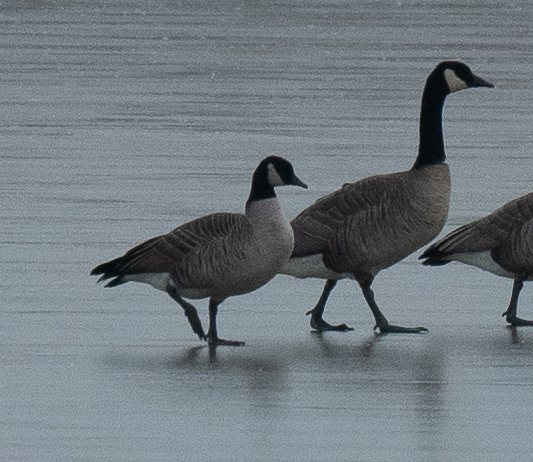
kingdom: Animalia
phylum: Chordata
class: Aves
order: Anseriformes
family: Anatidae
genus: Branta
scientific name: Branta hutchinsii
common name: Cackling goose
